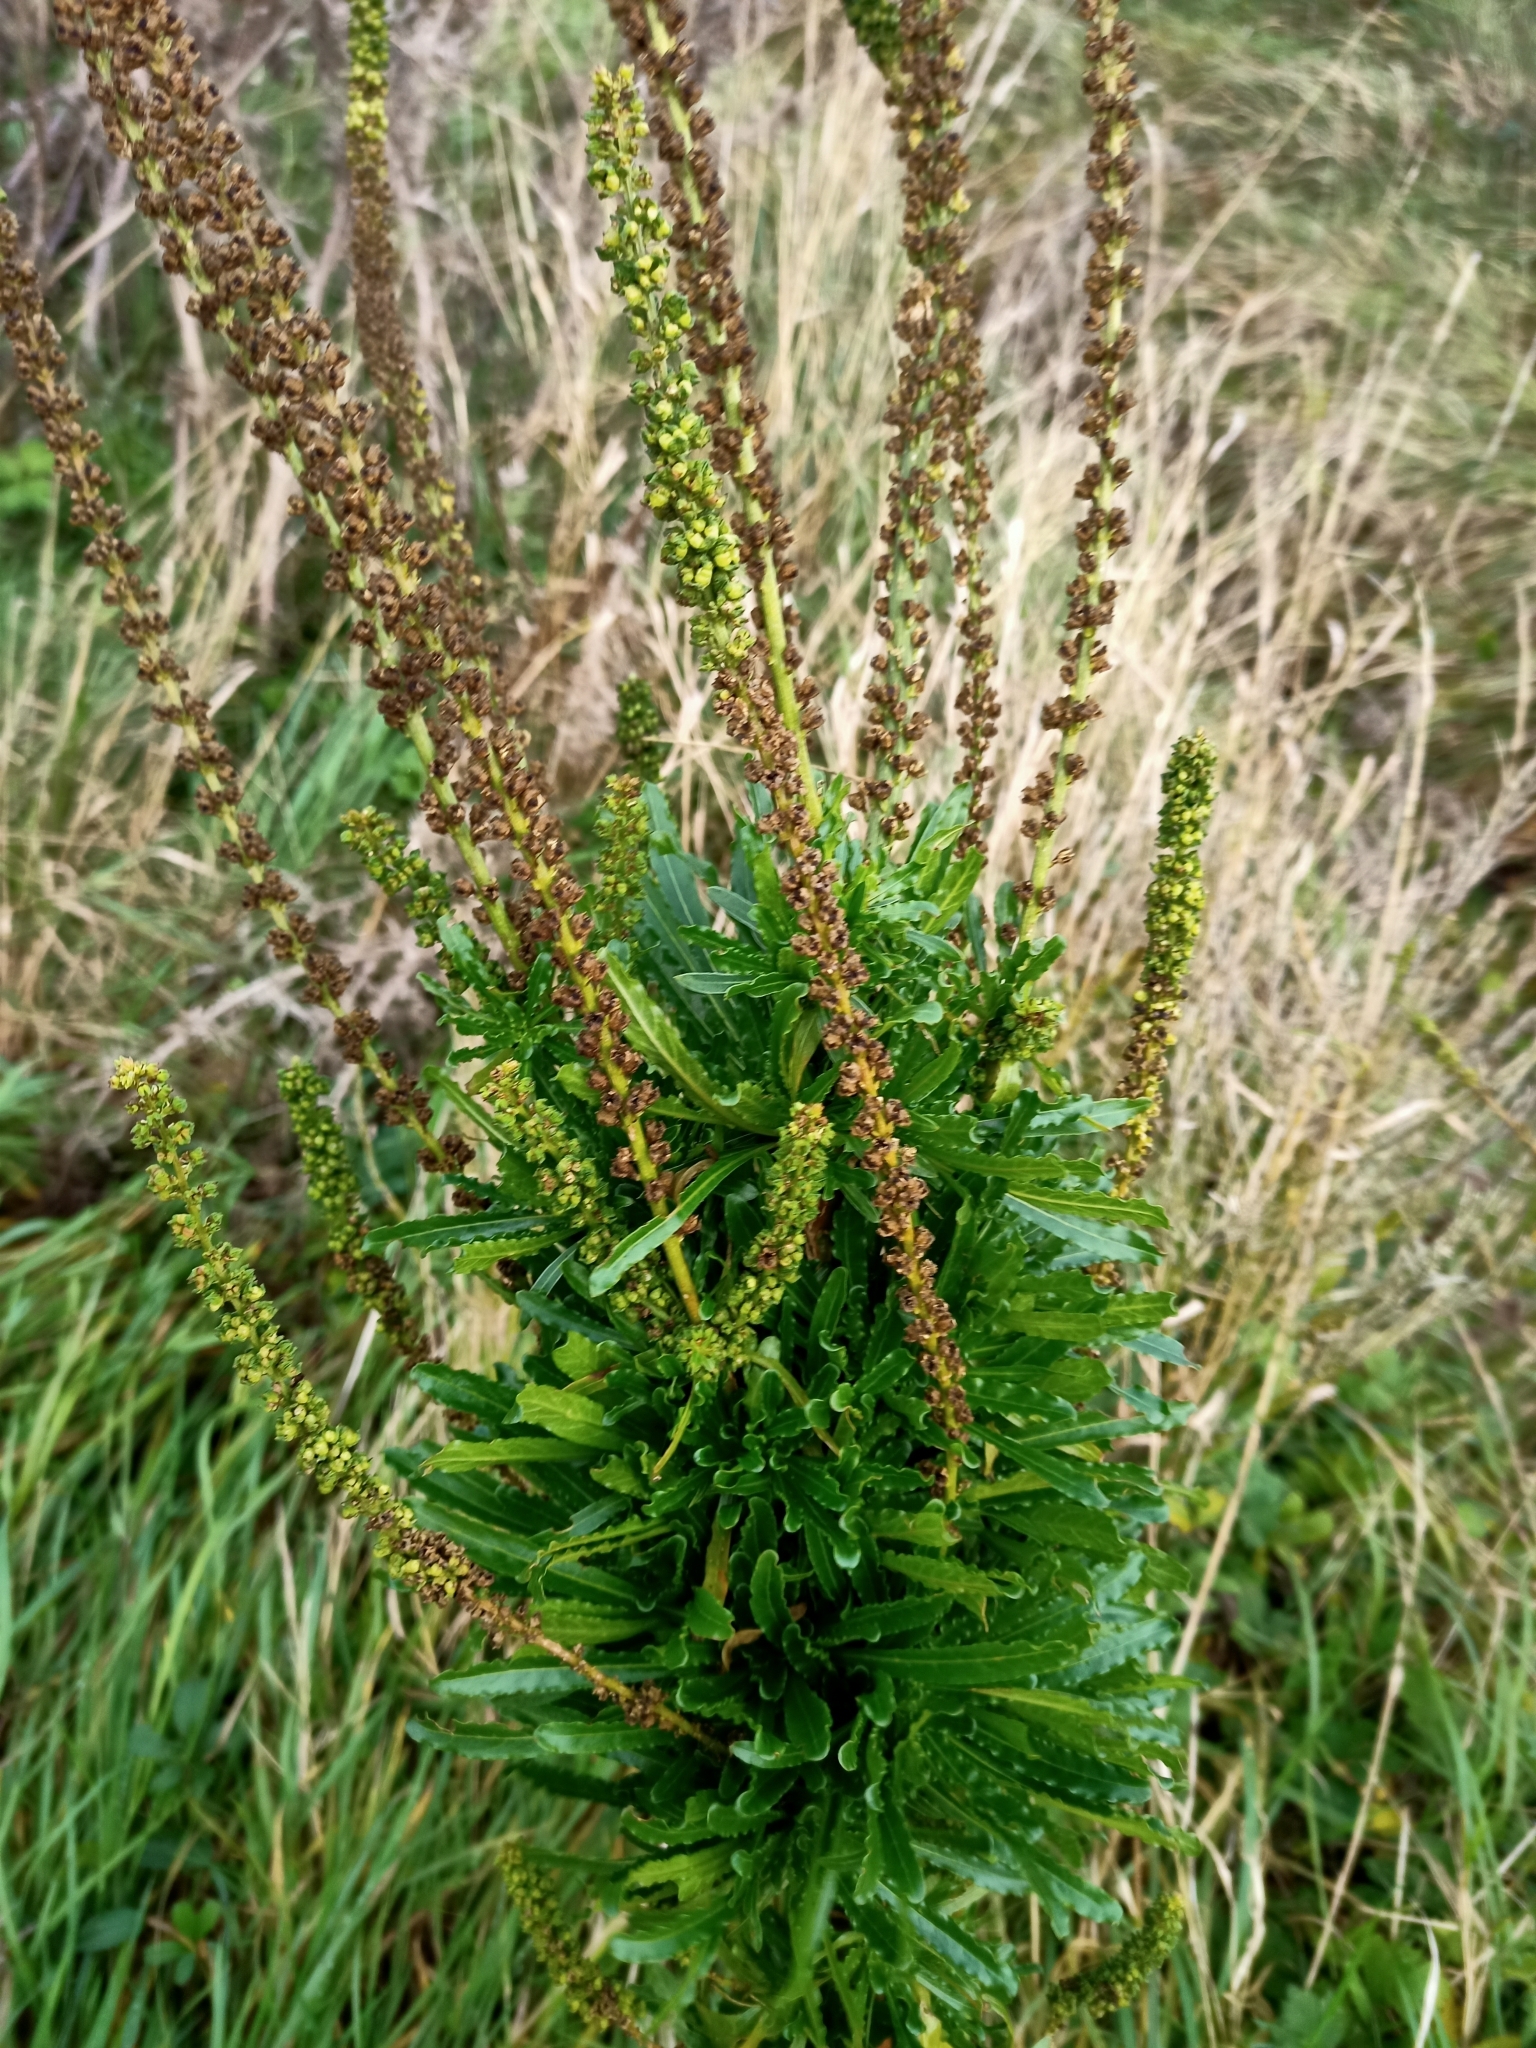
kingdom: Plantae
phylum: Tracheophyta
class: Magnoliopsida
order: Brassicales
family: Resedaceae
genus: Reseda
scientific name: Reseda luteola
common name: Weld
